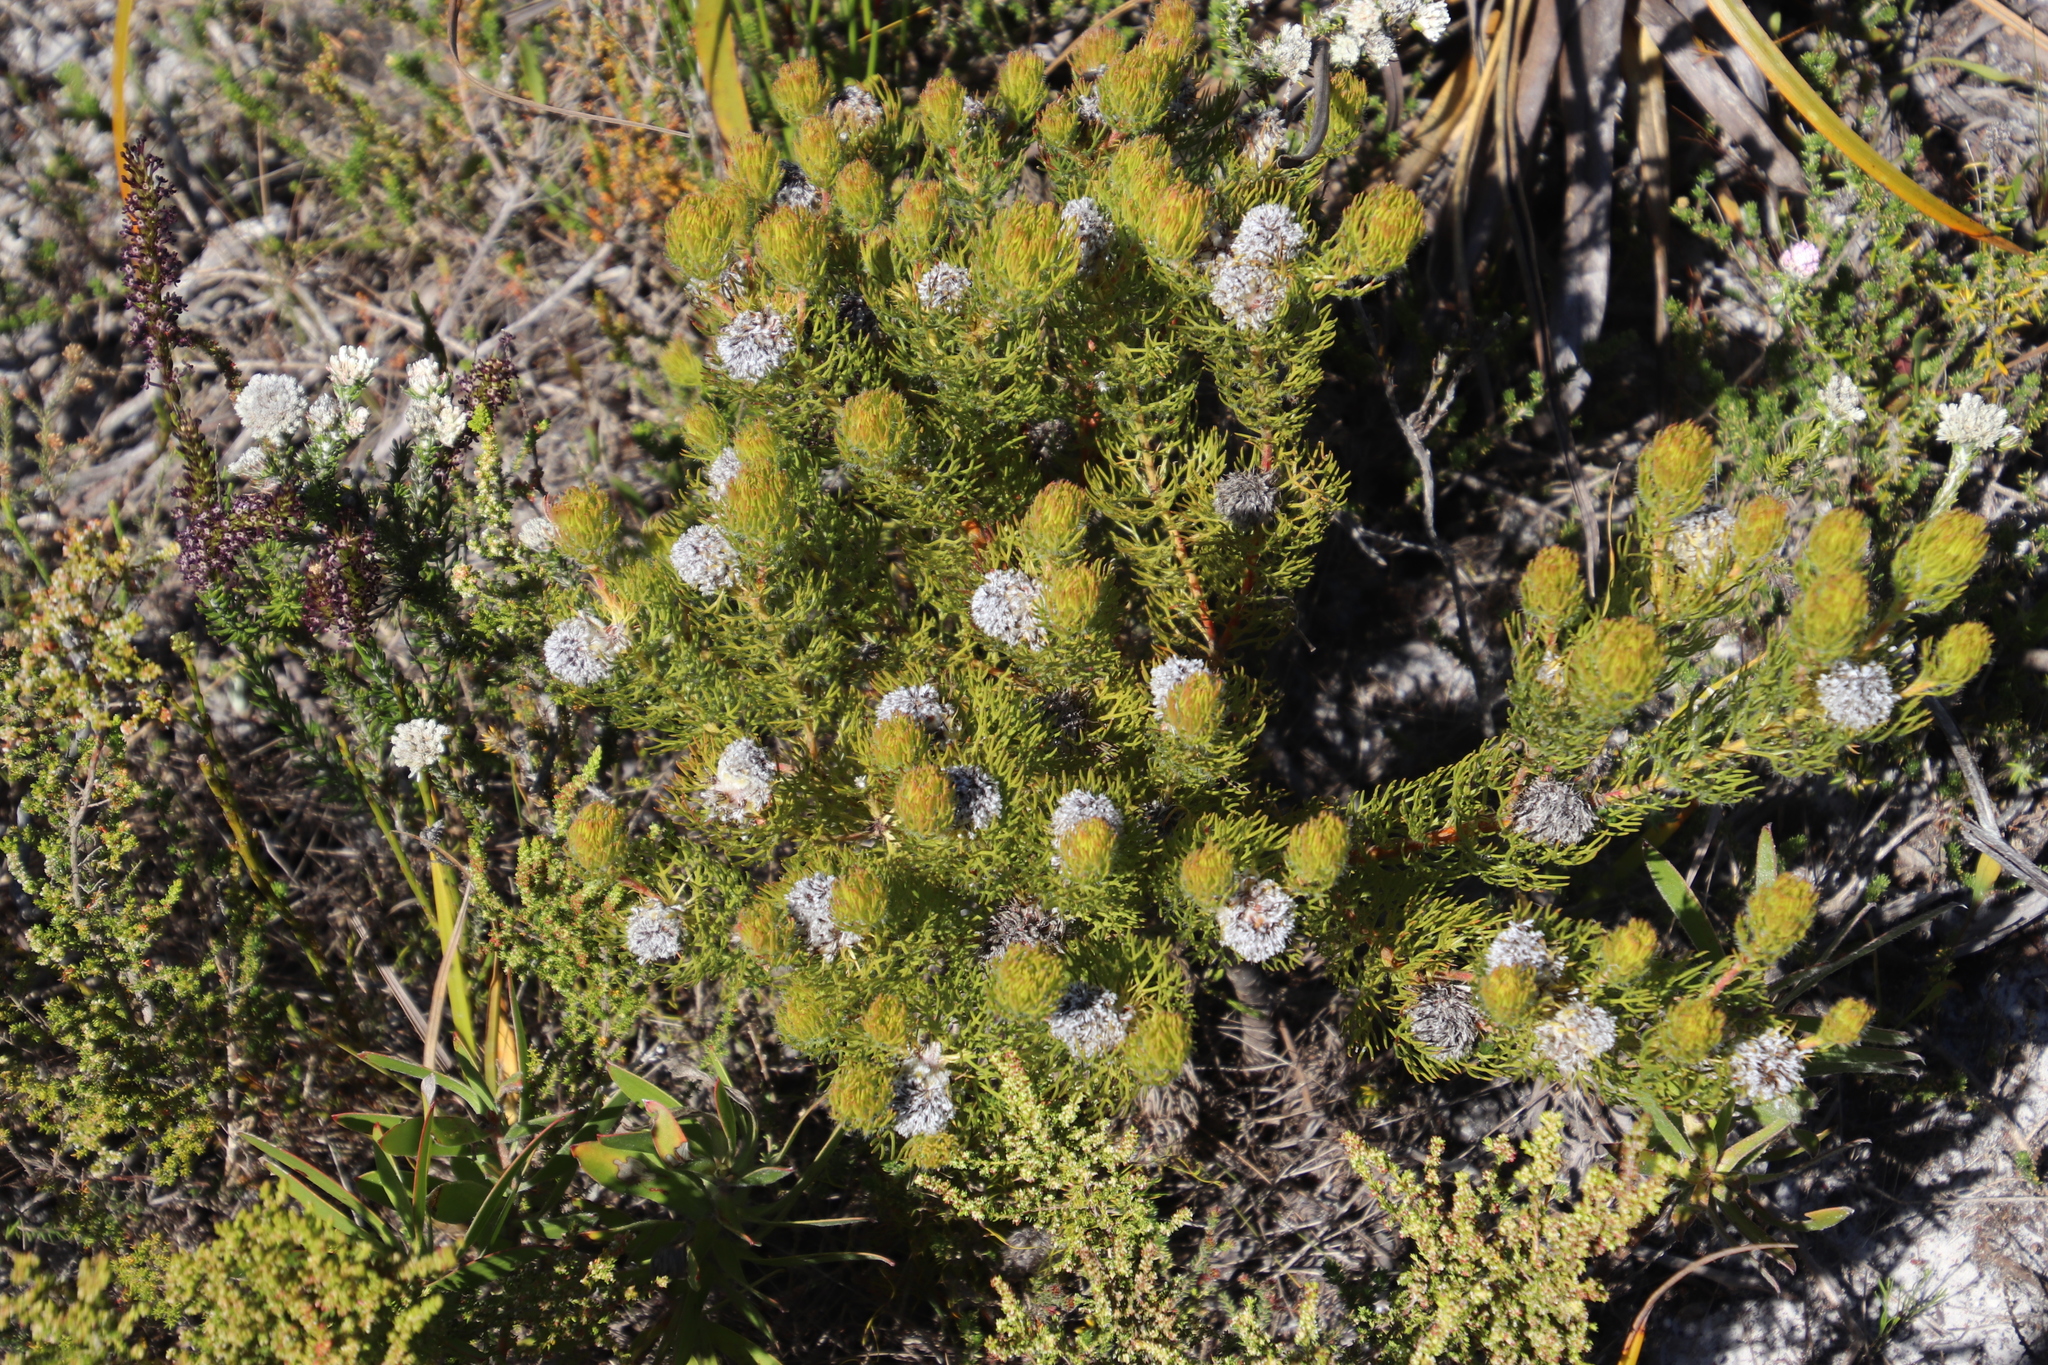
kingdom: Plantae
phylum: Tracheophyta
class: Magnoliopsida
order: Proteales
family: Proteaceae
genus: Serruria
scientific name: Serruria villosa
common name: Golden spiderhead
